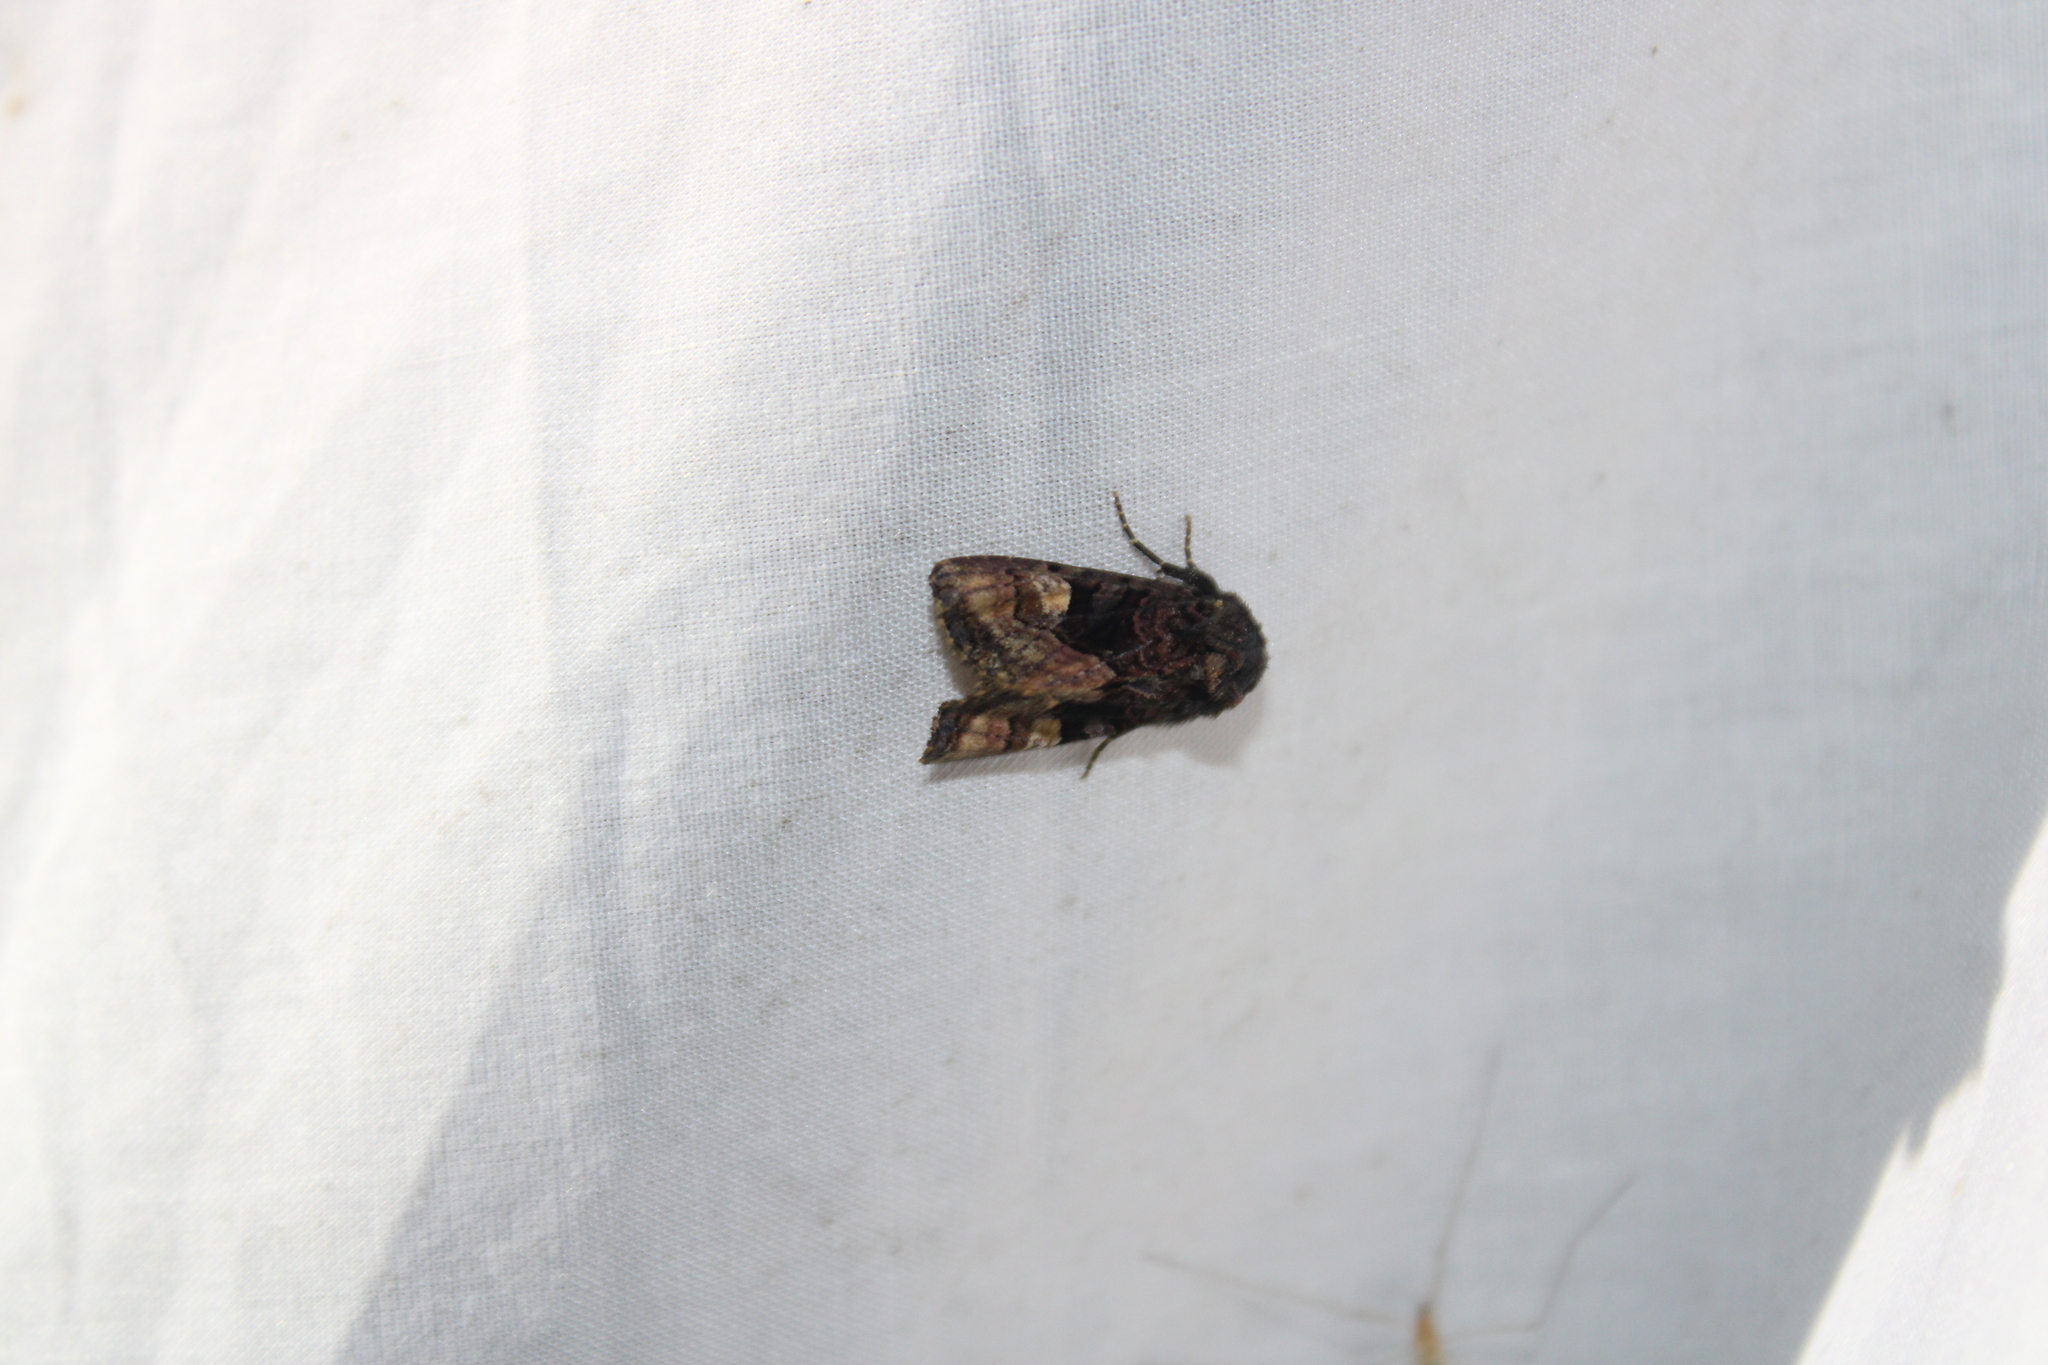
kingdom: Animalia
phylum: Arthropoda
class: Insecta
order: Lepidoptera
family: Noctuidae
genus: Euplexia
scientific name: Euplexia benesimilis
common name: American angle shades
